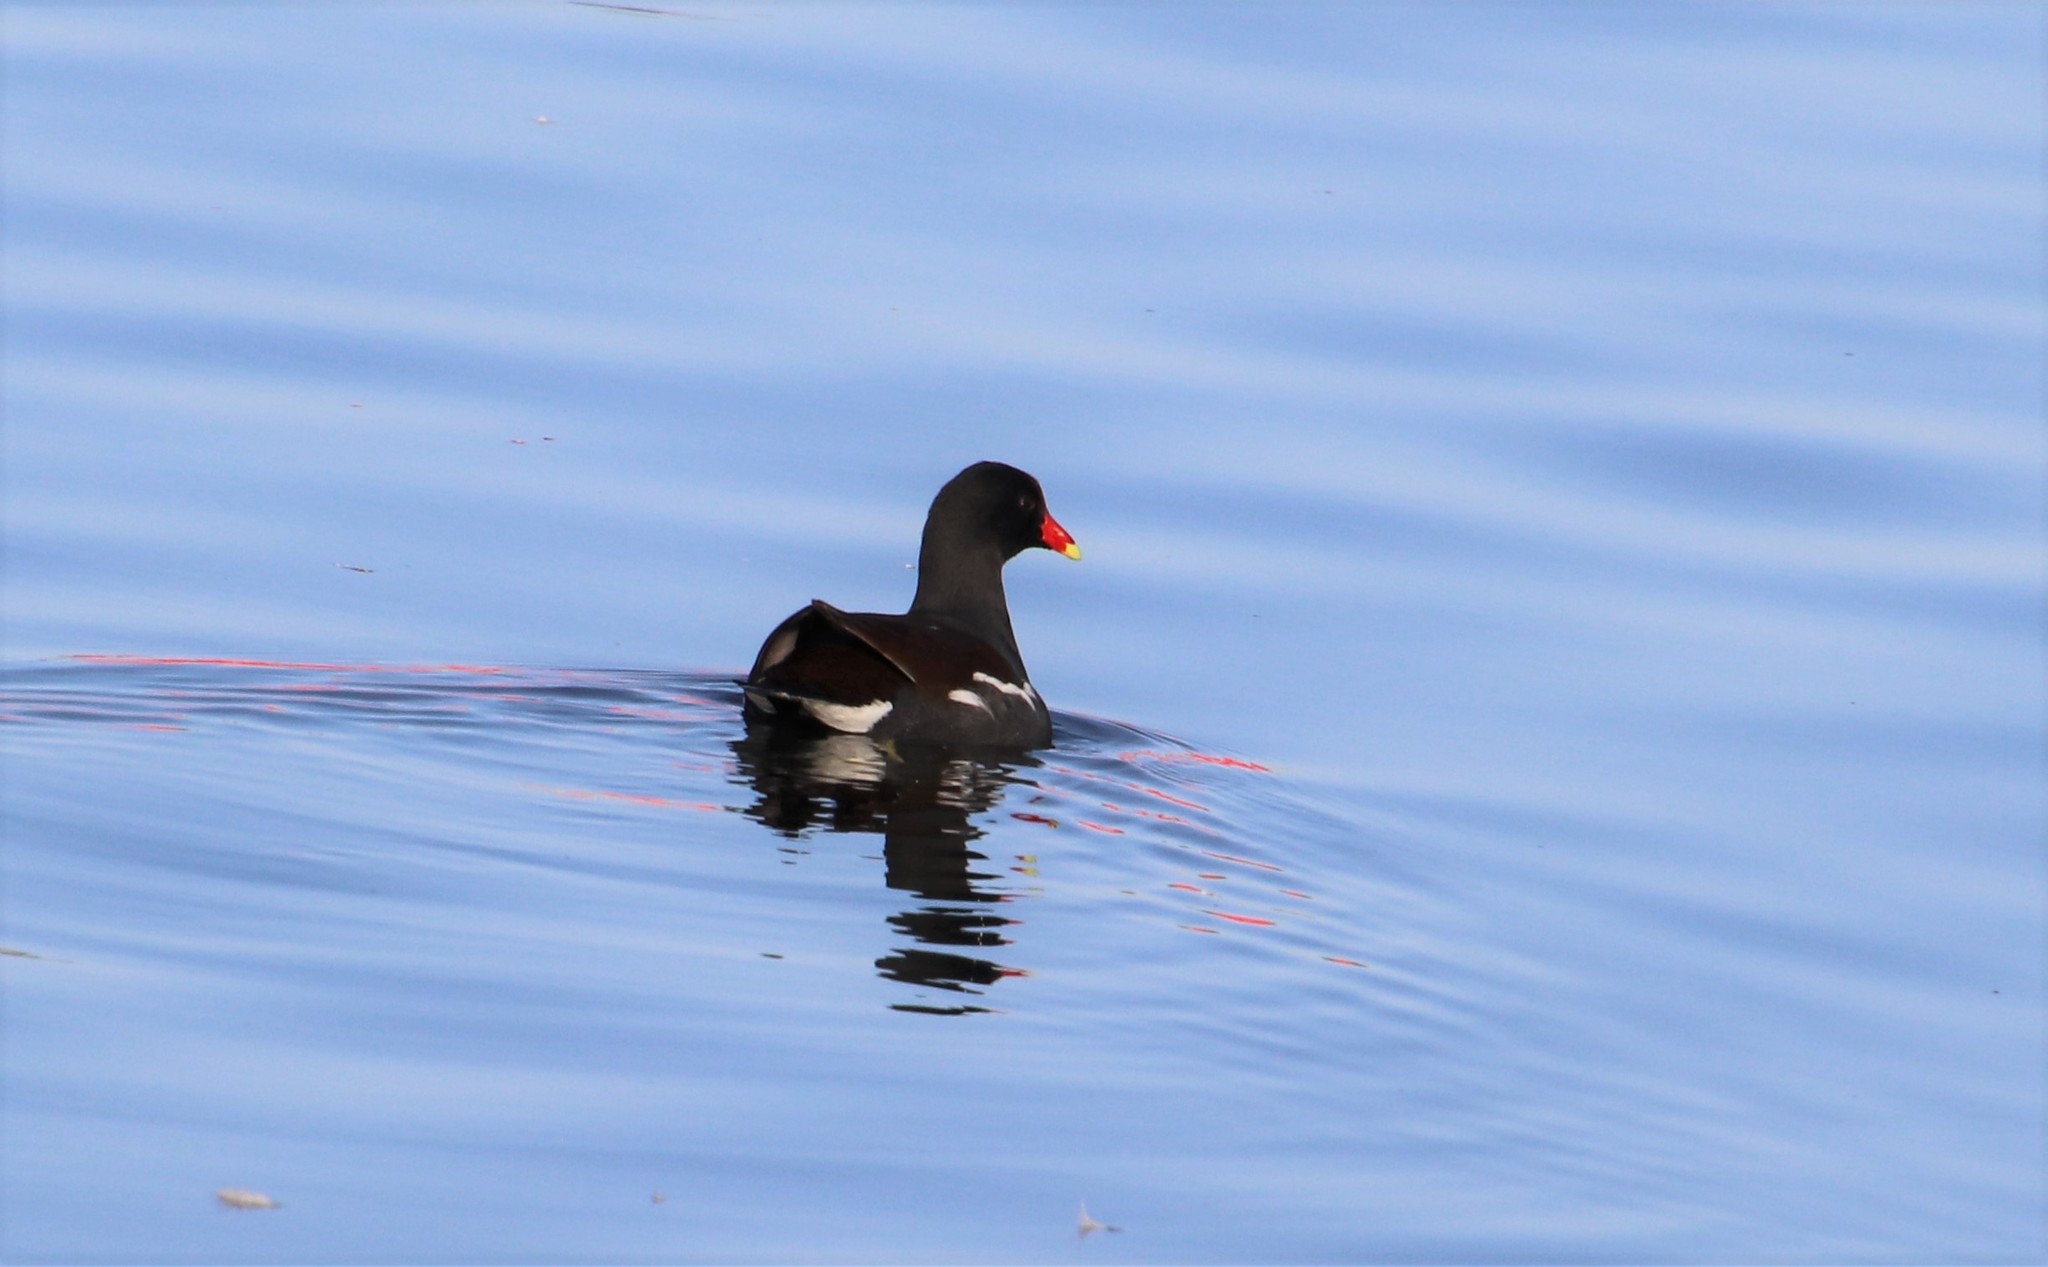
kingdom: Animalia
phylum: Chordata
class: Aves
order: Gruiformes
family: Rallidae
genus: Gallinula
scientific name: Gallinula chloropus
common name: Common moorhen
